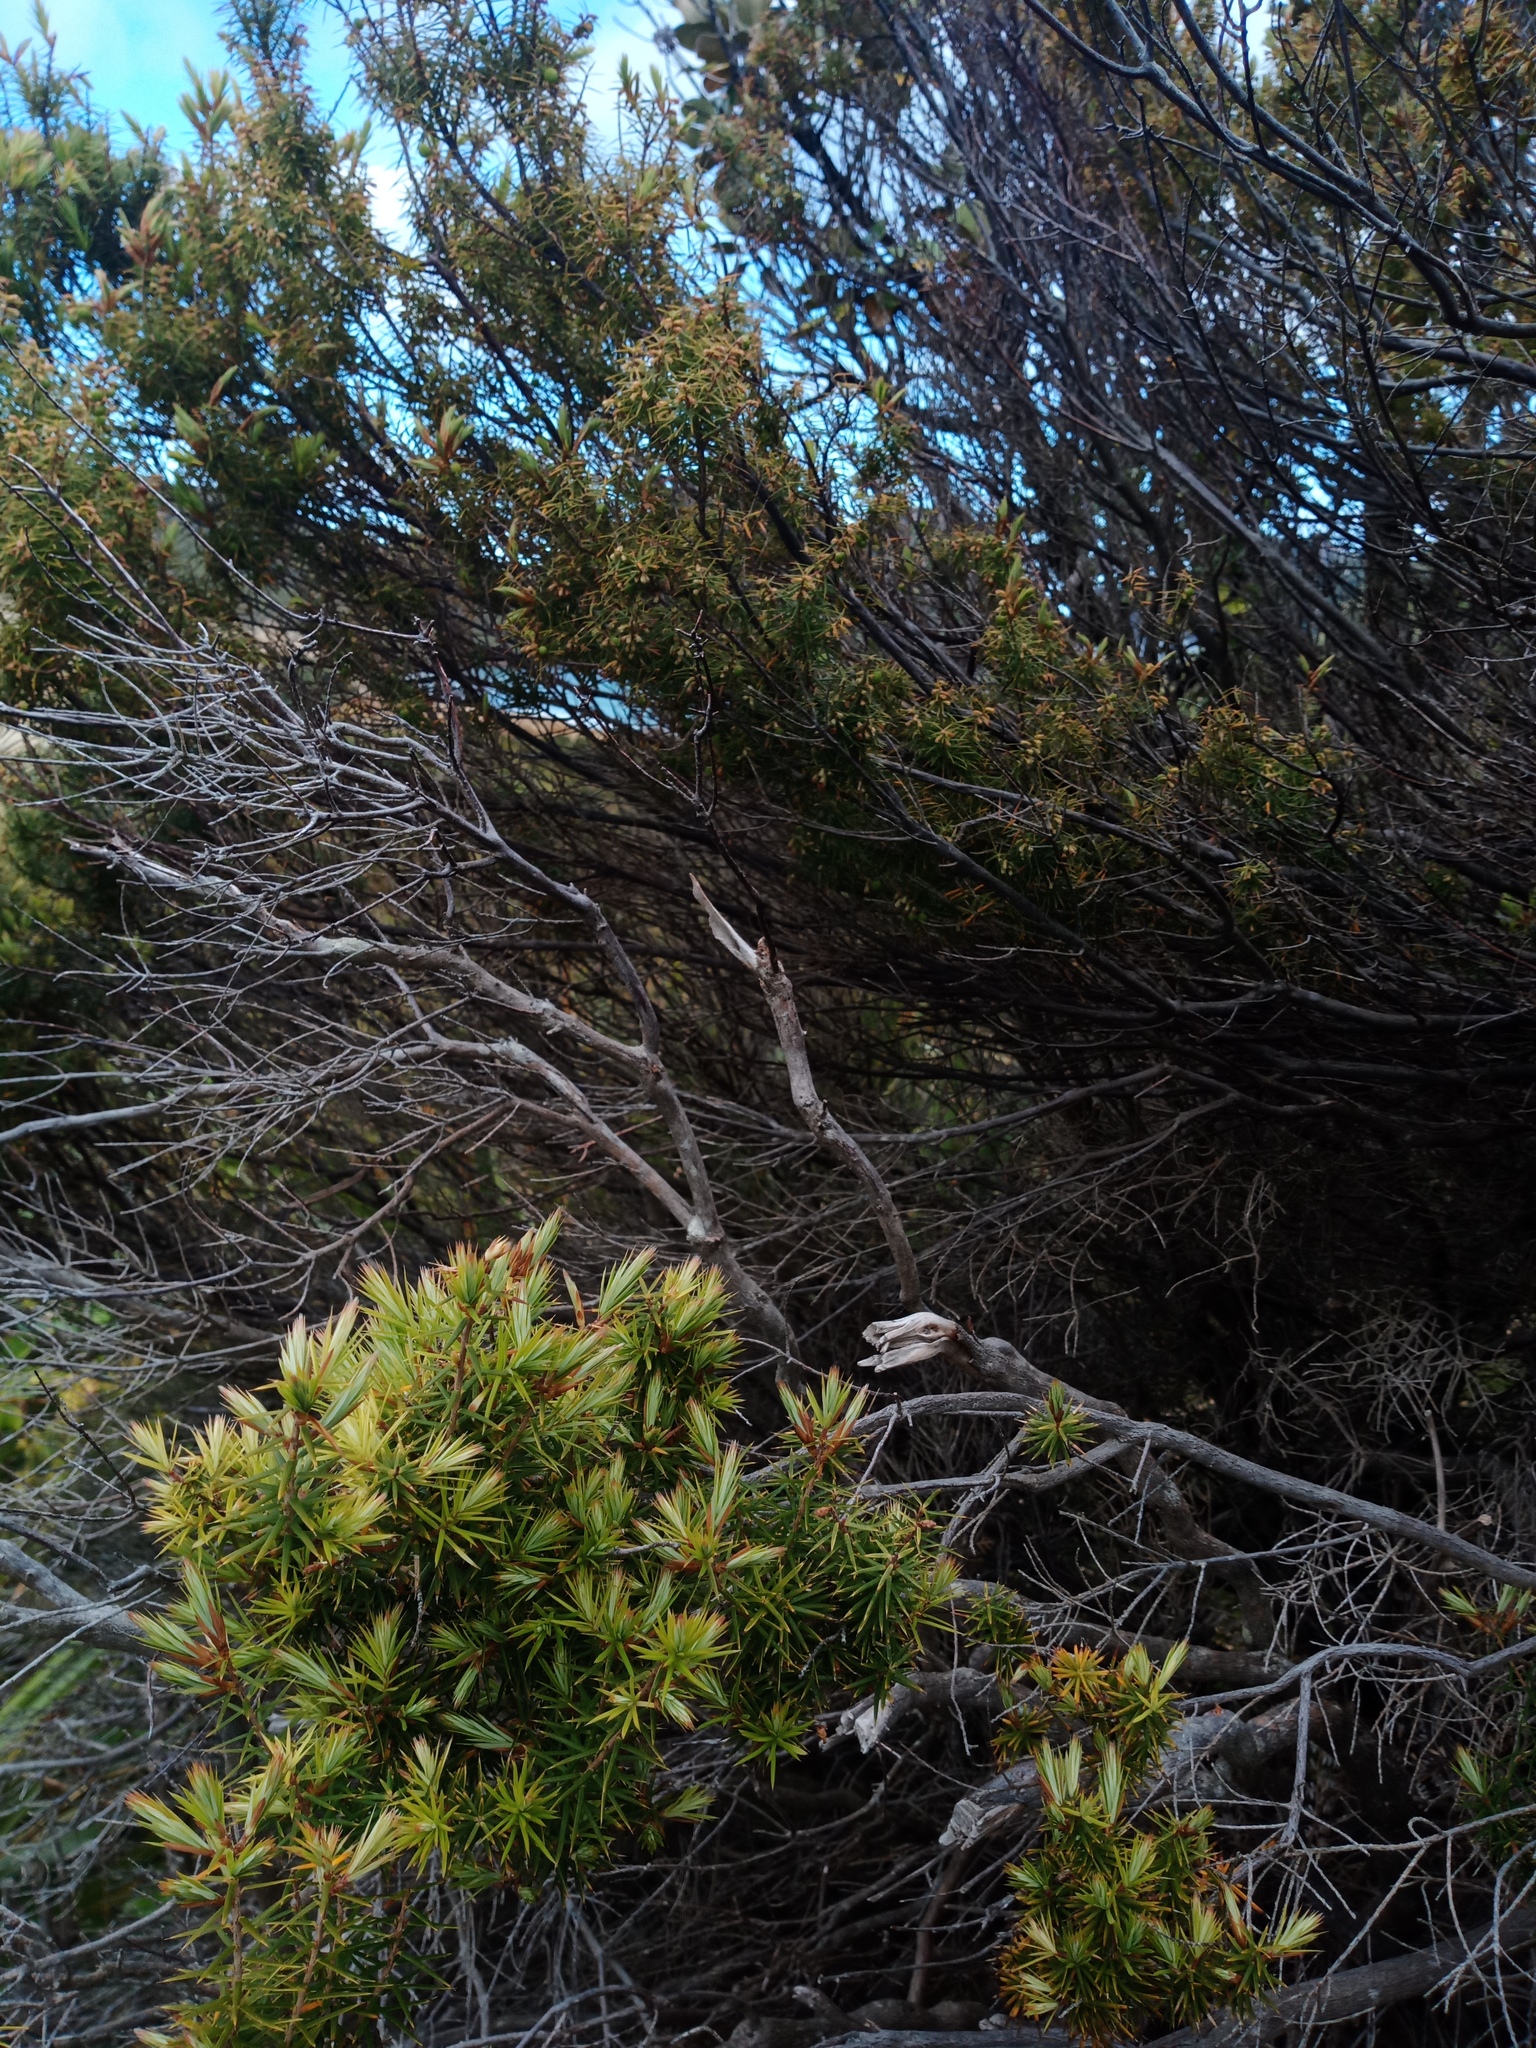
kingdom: Plantae
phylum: Tracheophyta
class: Magnoliopsida
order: Ericales
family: Ericaceae
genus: Leptecophylla
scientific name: Leptecophylla juniperina
